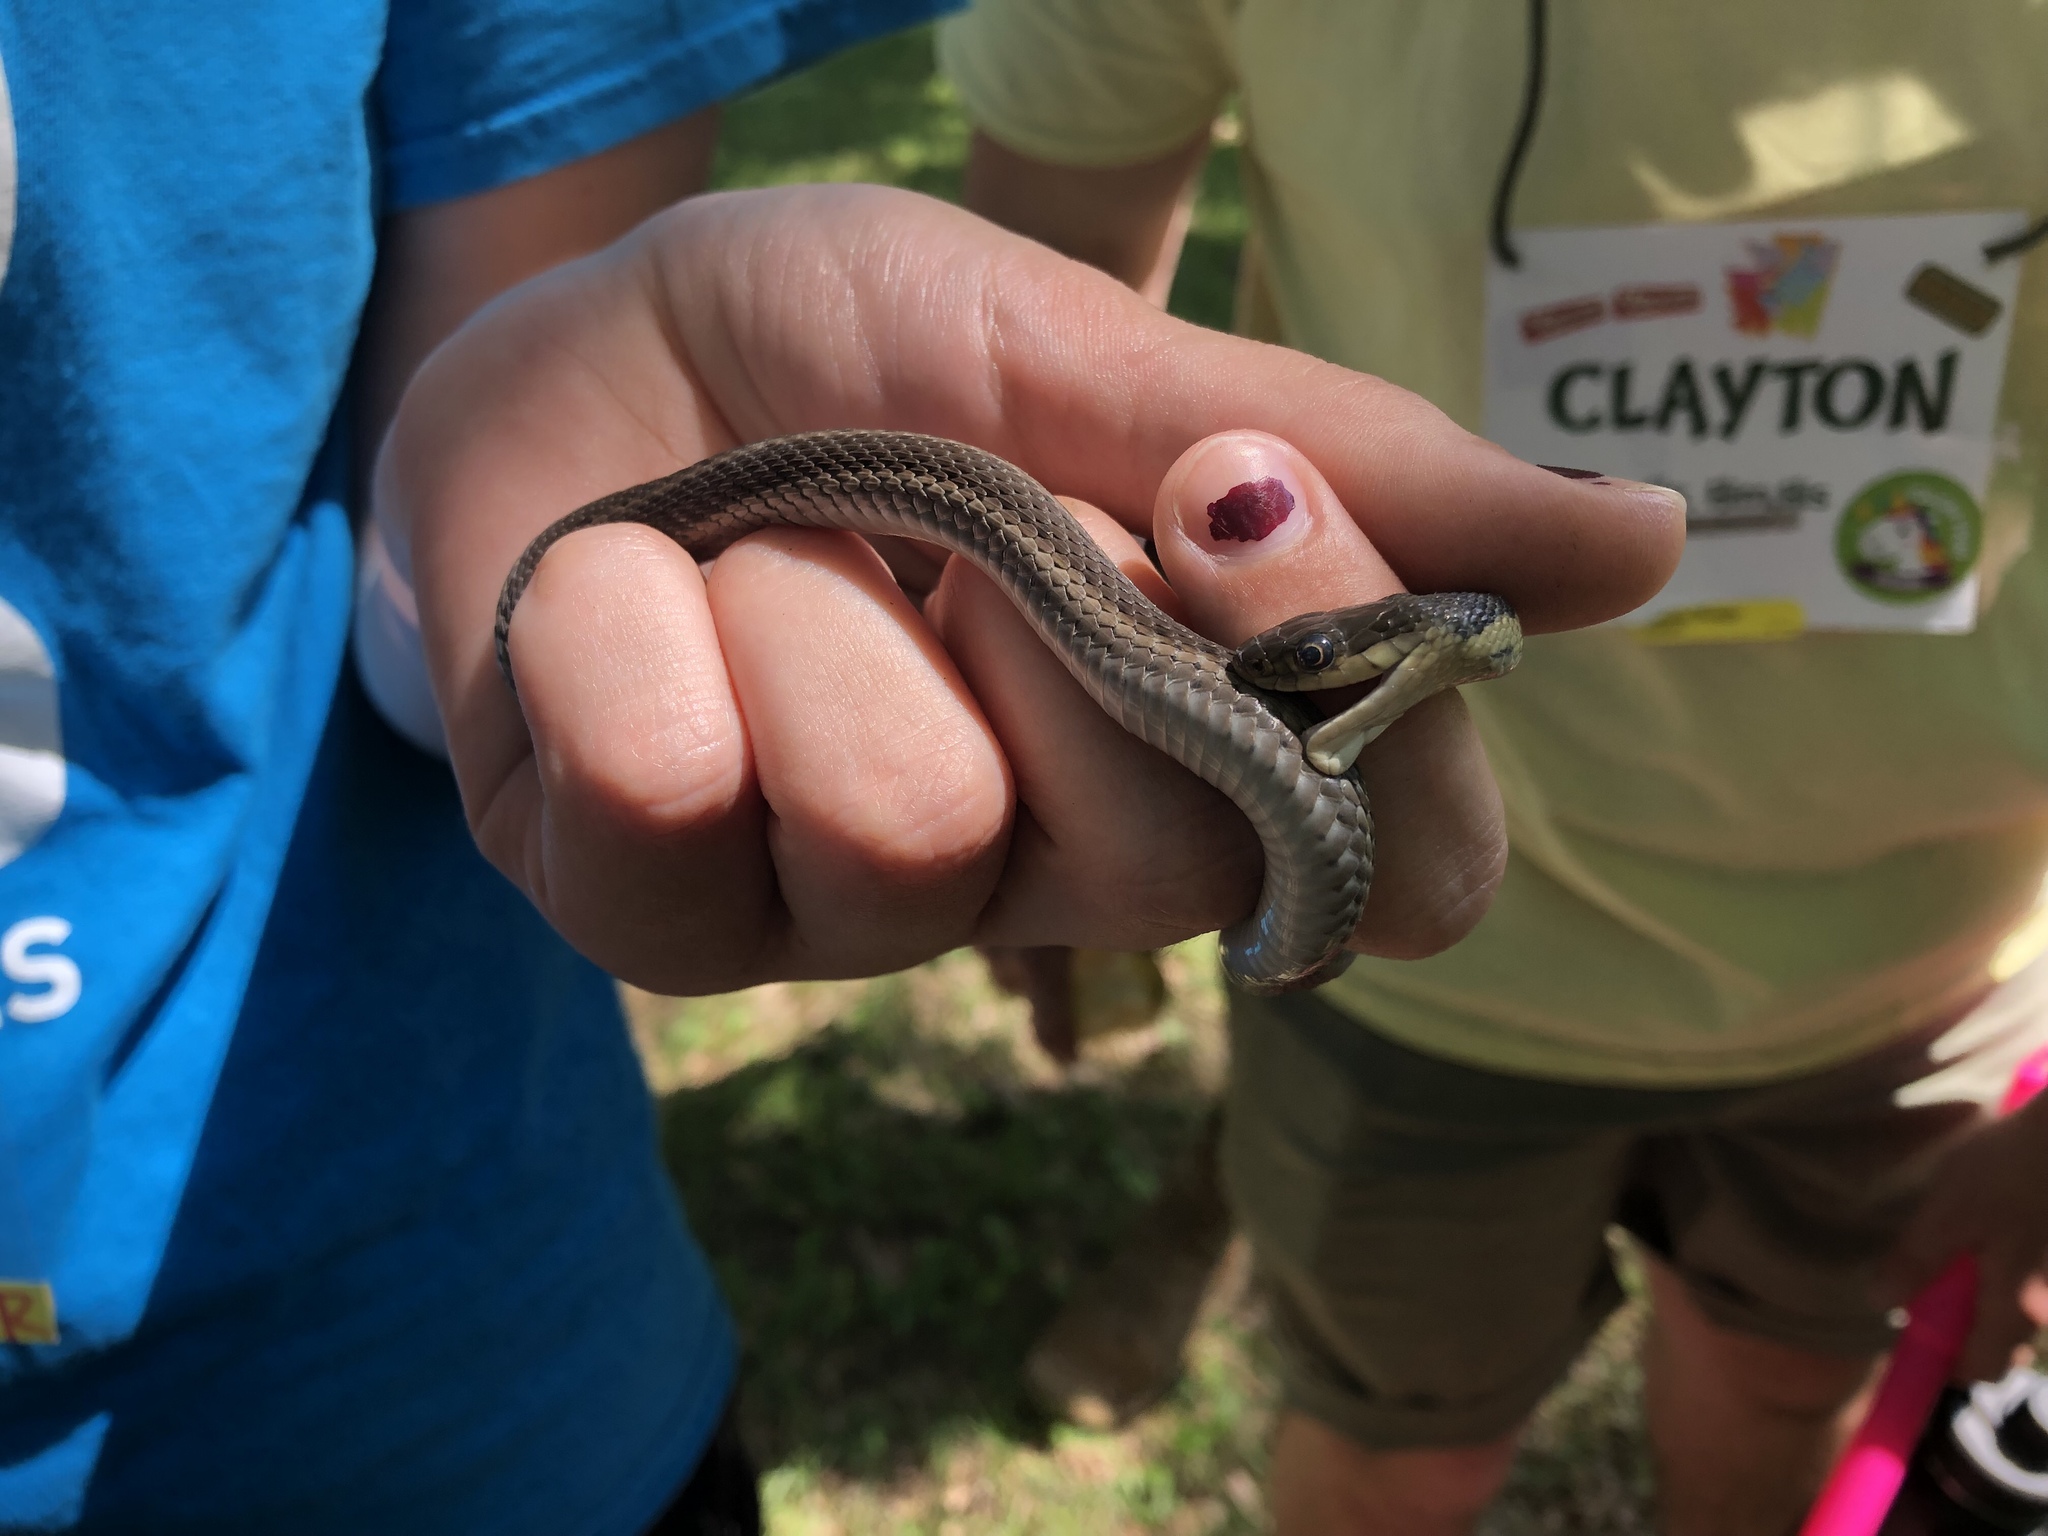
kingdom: Animalia
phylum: Chordata
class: Squamata
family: Colubridae
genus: Thamnophis
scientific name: Thamnophis sirtalis
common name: Common garter snake
